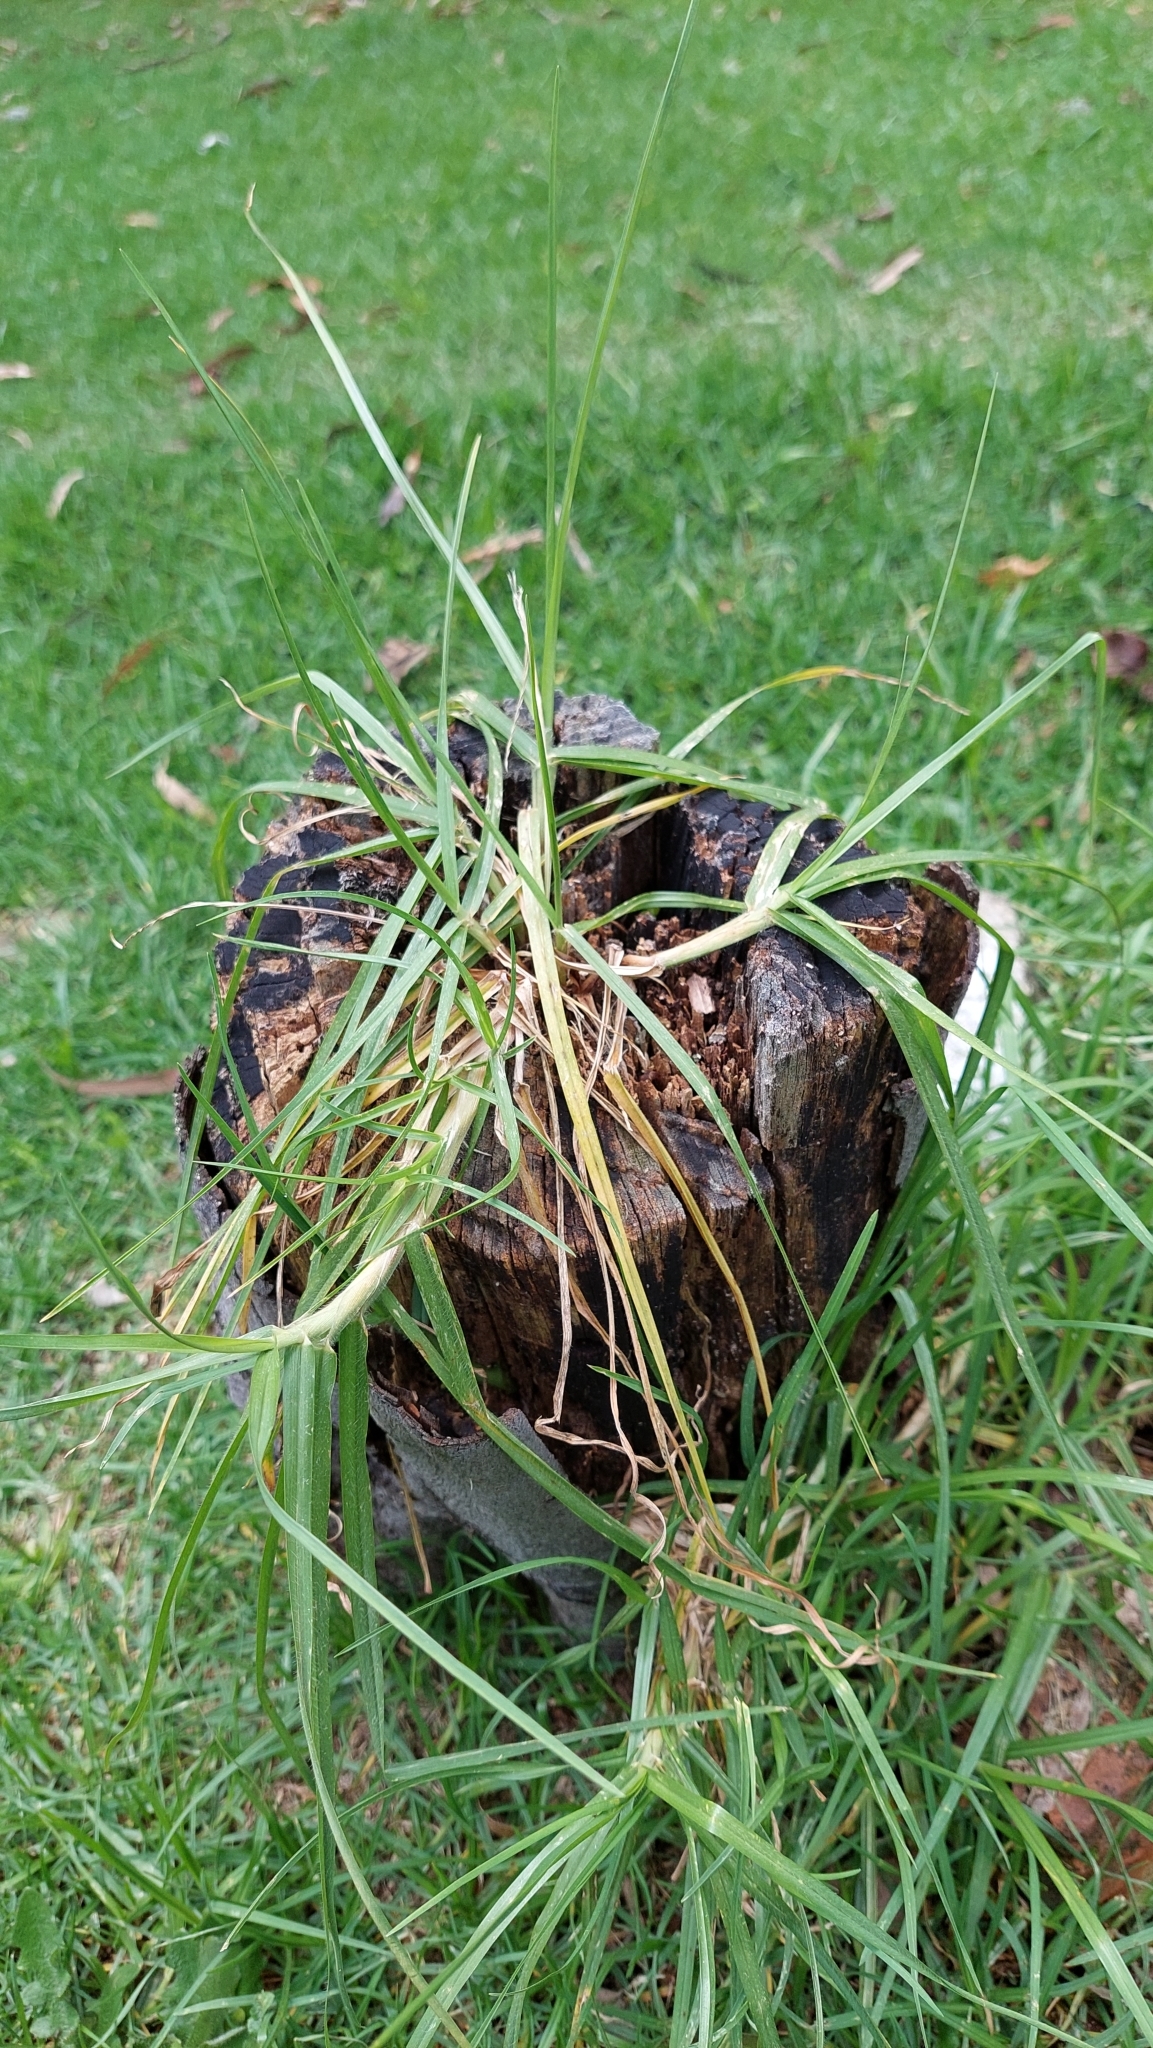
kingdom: Plantae
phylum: Tracheophyta
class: Liliopsida
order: Poales
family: Poaceae
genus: Cenchrus
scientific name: Cenchrus clandestinus
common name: Kikuyugrass
